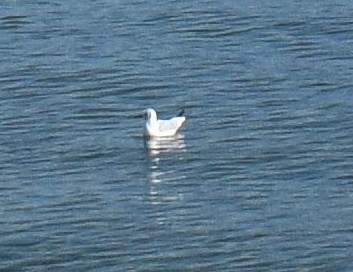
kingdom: Animalia
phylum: Chordata
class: Aves
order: Charadriiformes
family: Laridae
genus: Chroicocephalus
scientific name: Chroicocephalus ridibundus
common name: Black-headed gull
